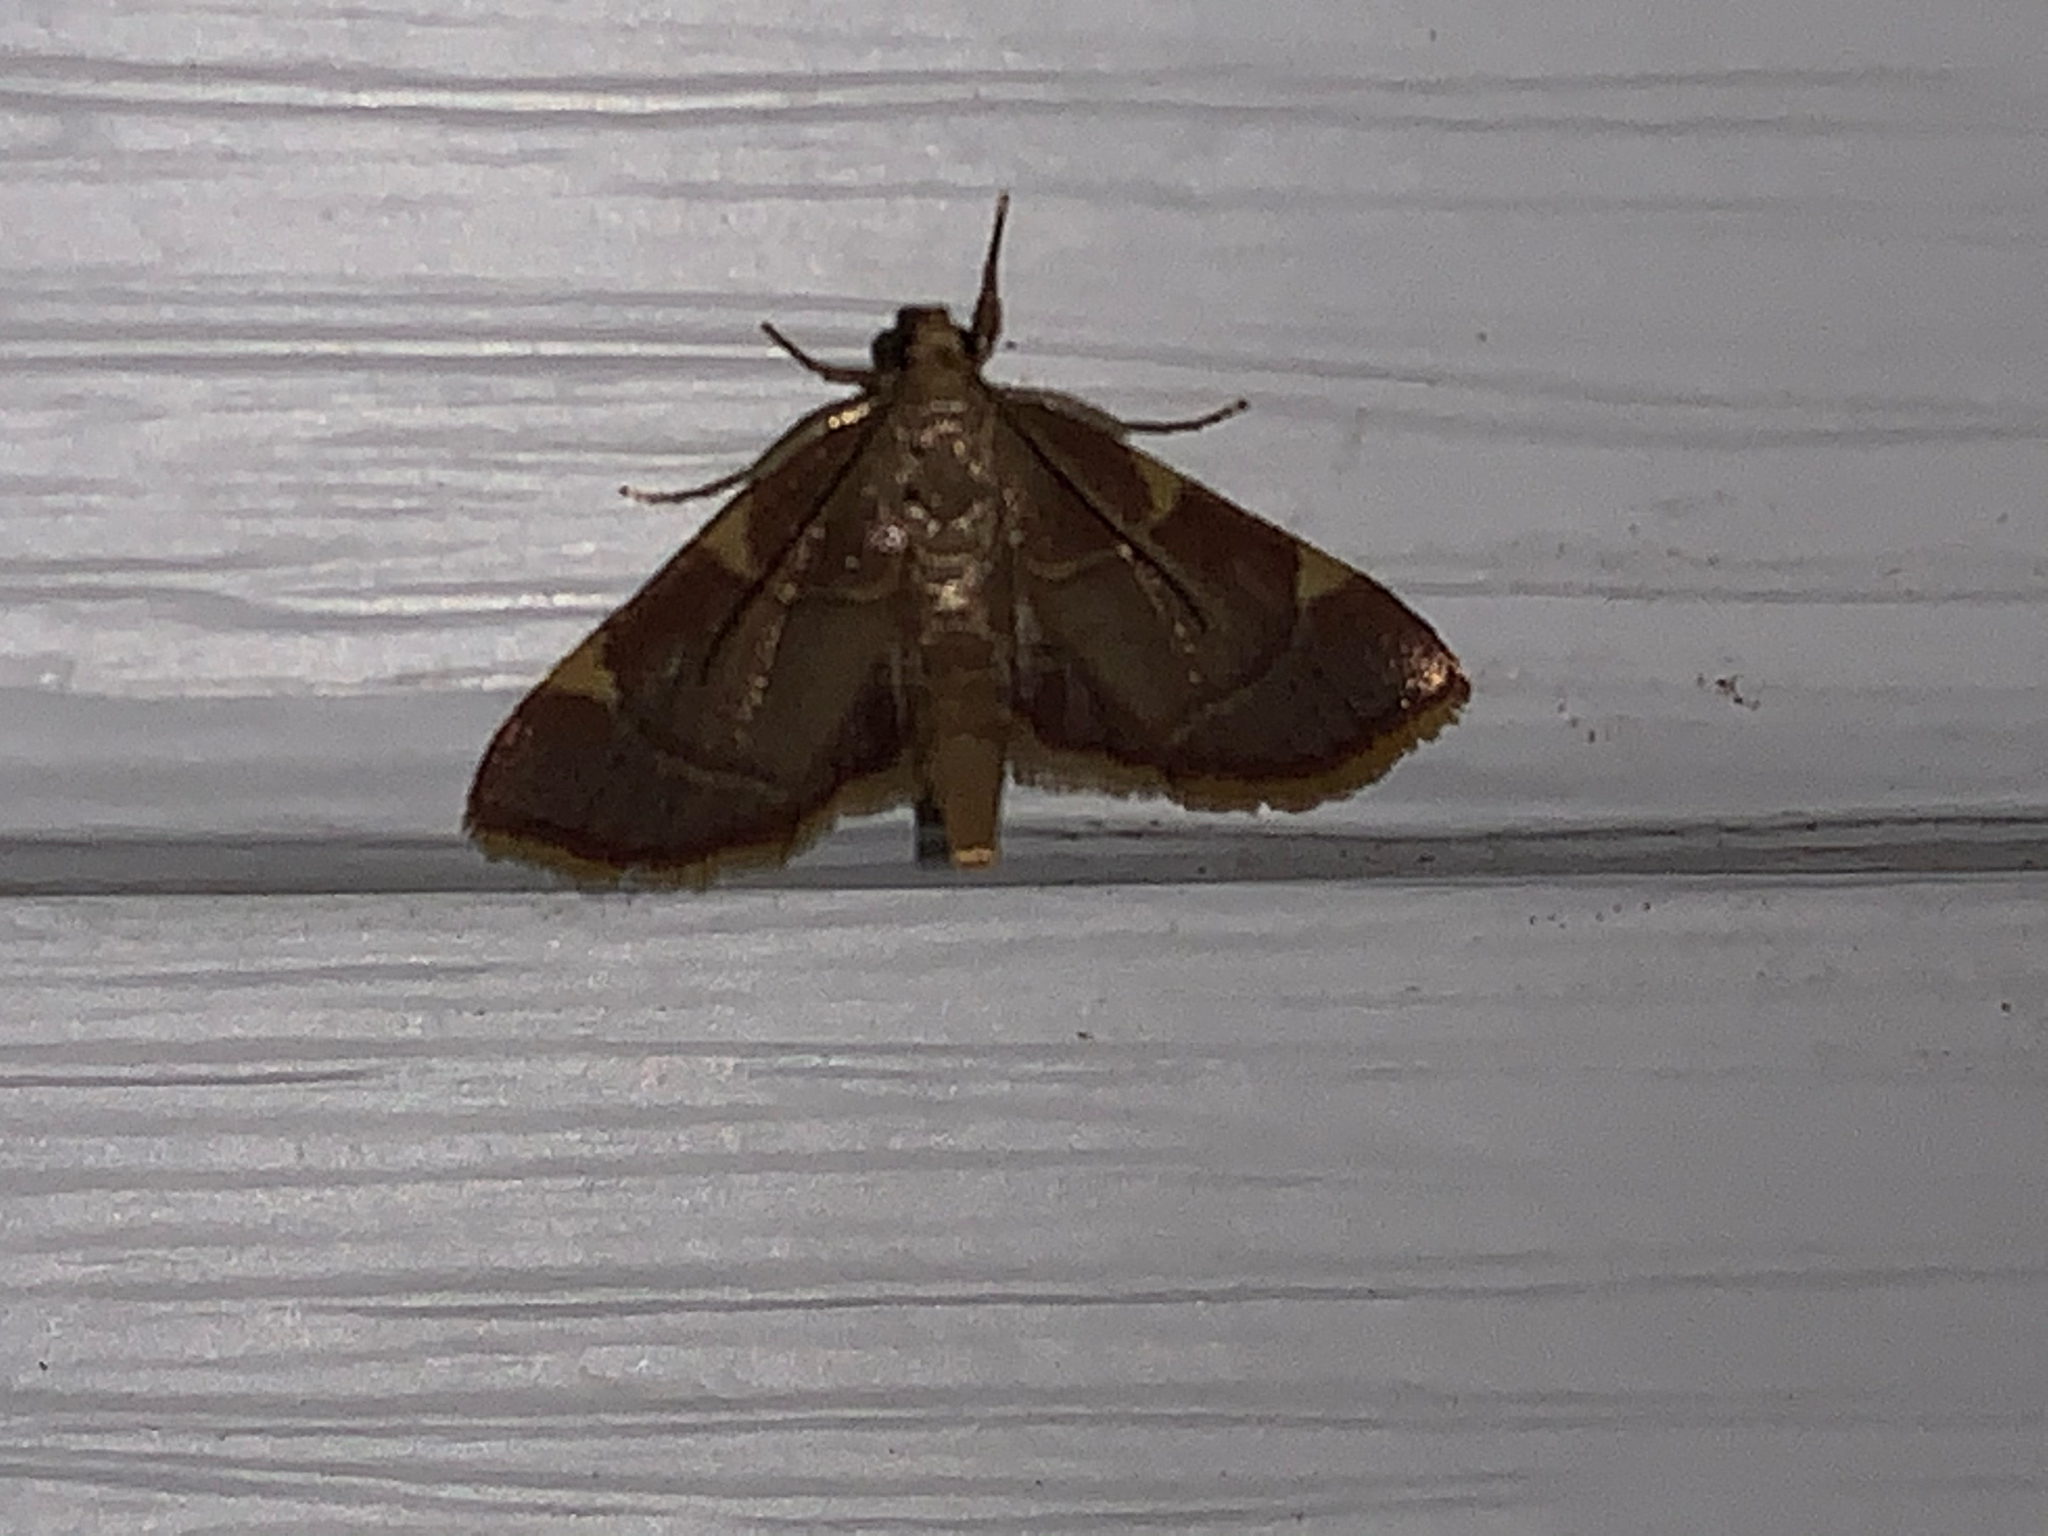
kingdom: Animalia
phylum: Arthropoda
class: Insecta
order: Lepidoptera
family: Pyralidae
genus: Hypsopygia
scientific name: Hypsopygia olinalis
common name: Yellow-fringed dolichomia moth
